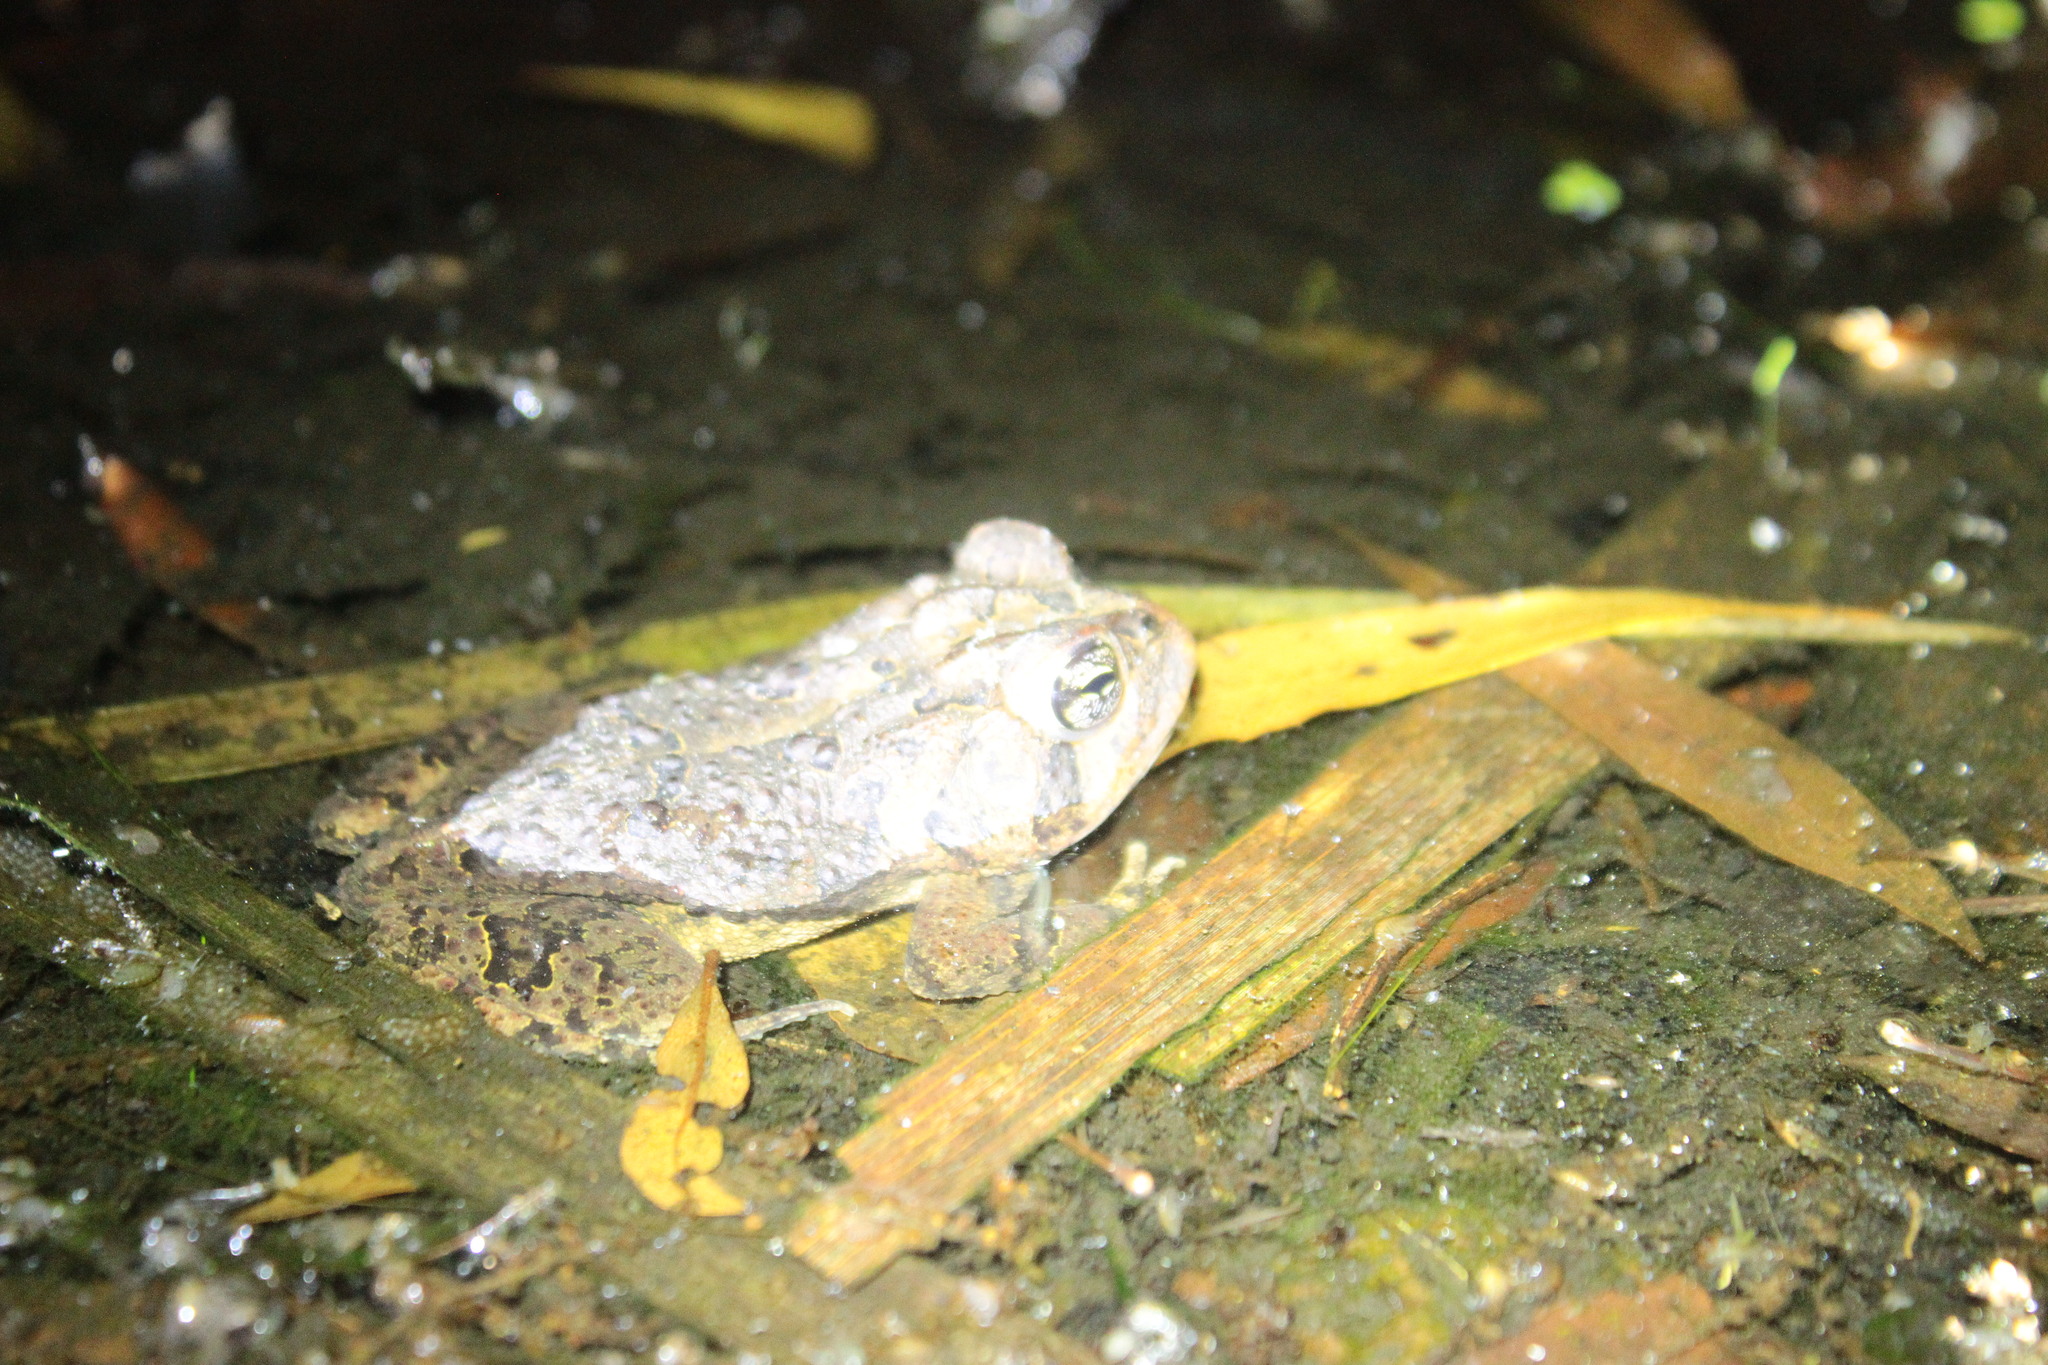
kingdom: Animalia
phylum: Chordata
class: Amphibia
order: Anura
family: Bufonidae
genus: Anaxyrus
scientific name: Anaxyrus terrestris
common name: Southern toad
